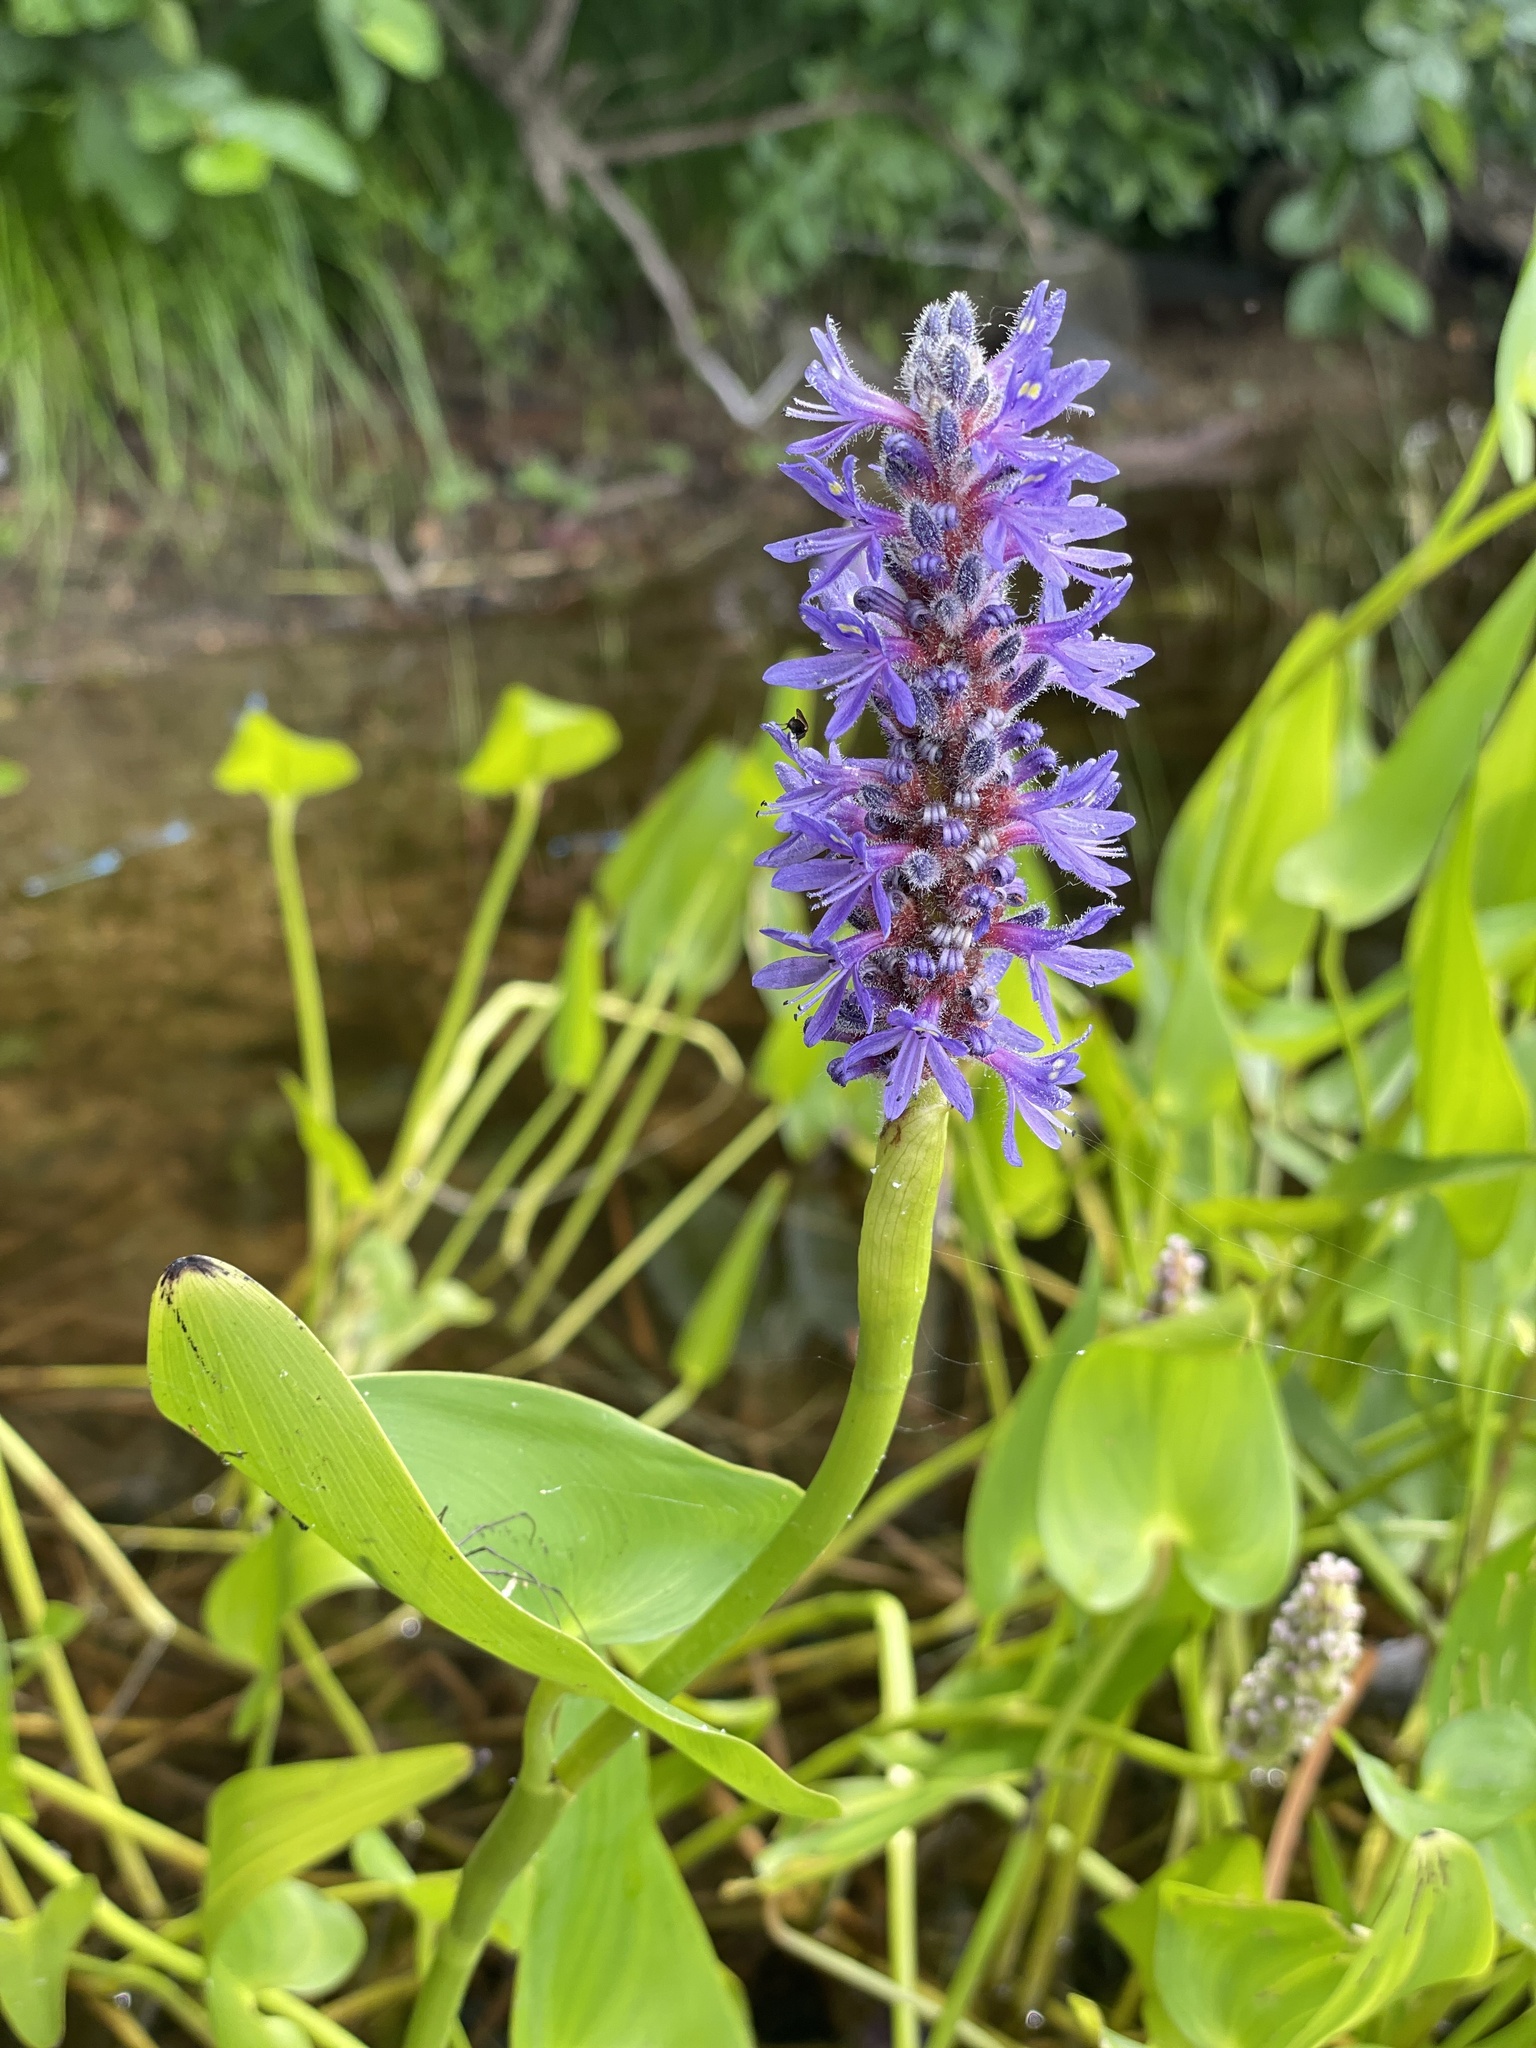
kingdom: Plantae
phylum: Tracheophyta
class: Liliopsida
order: Commelinales
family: Pontederiaceae
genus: Pontederia
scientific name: Pontederia cordata
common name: Pickerelweed
